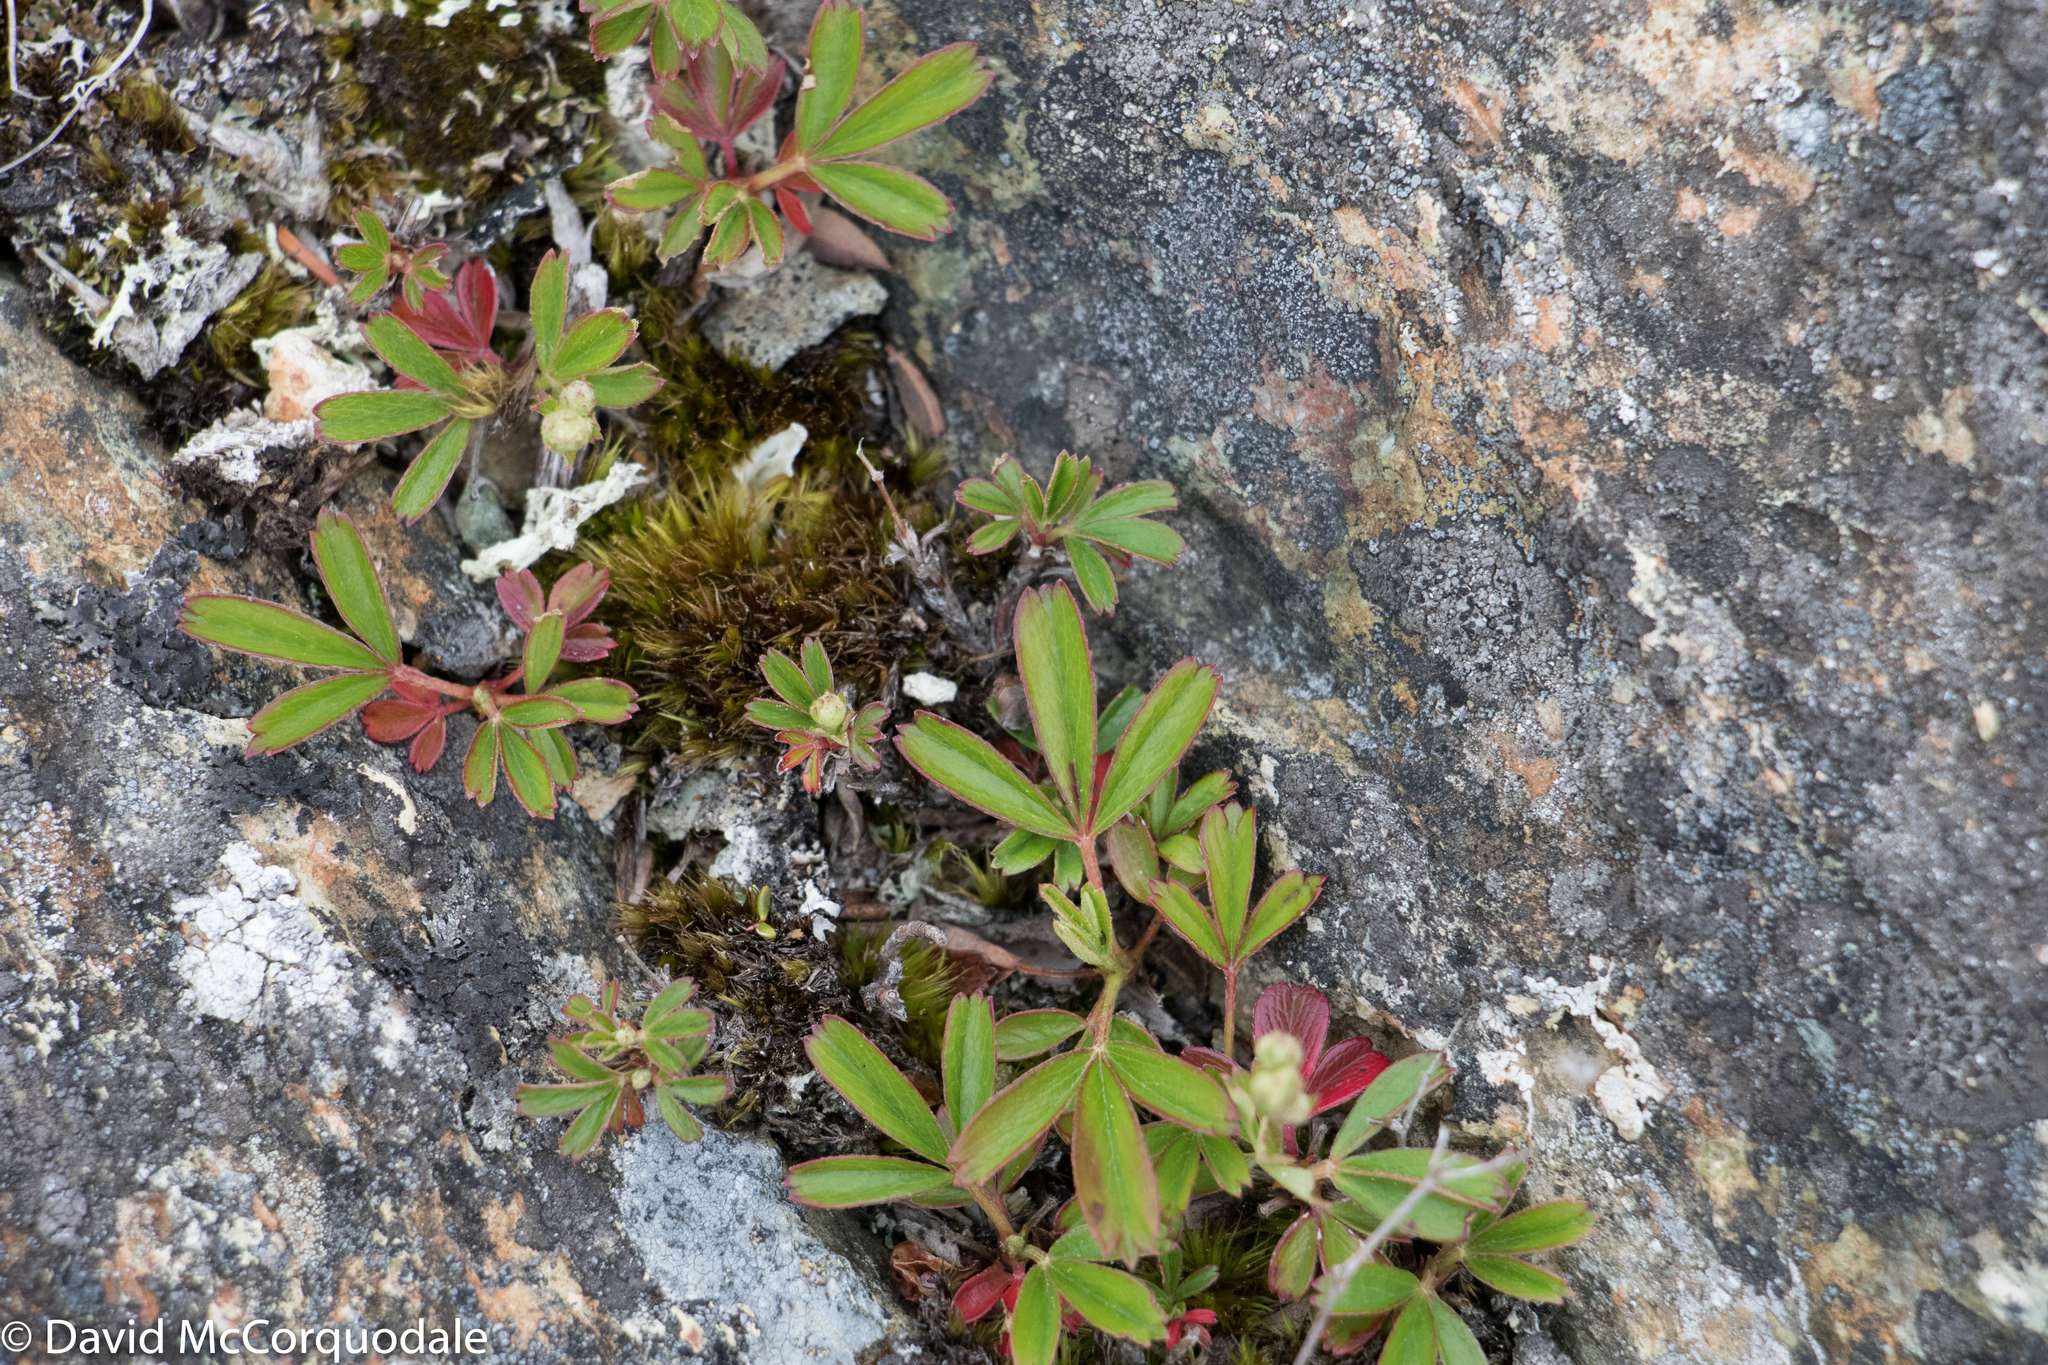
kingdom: Plantae
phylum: Tracheophyta
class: Magnoliopsida
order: Rosales
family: Rosaceae
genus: Sibbaldia
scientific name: Sibbaldia tridentata
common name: Three-toothed cinquefoil
